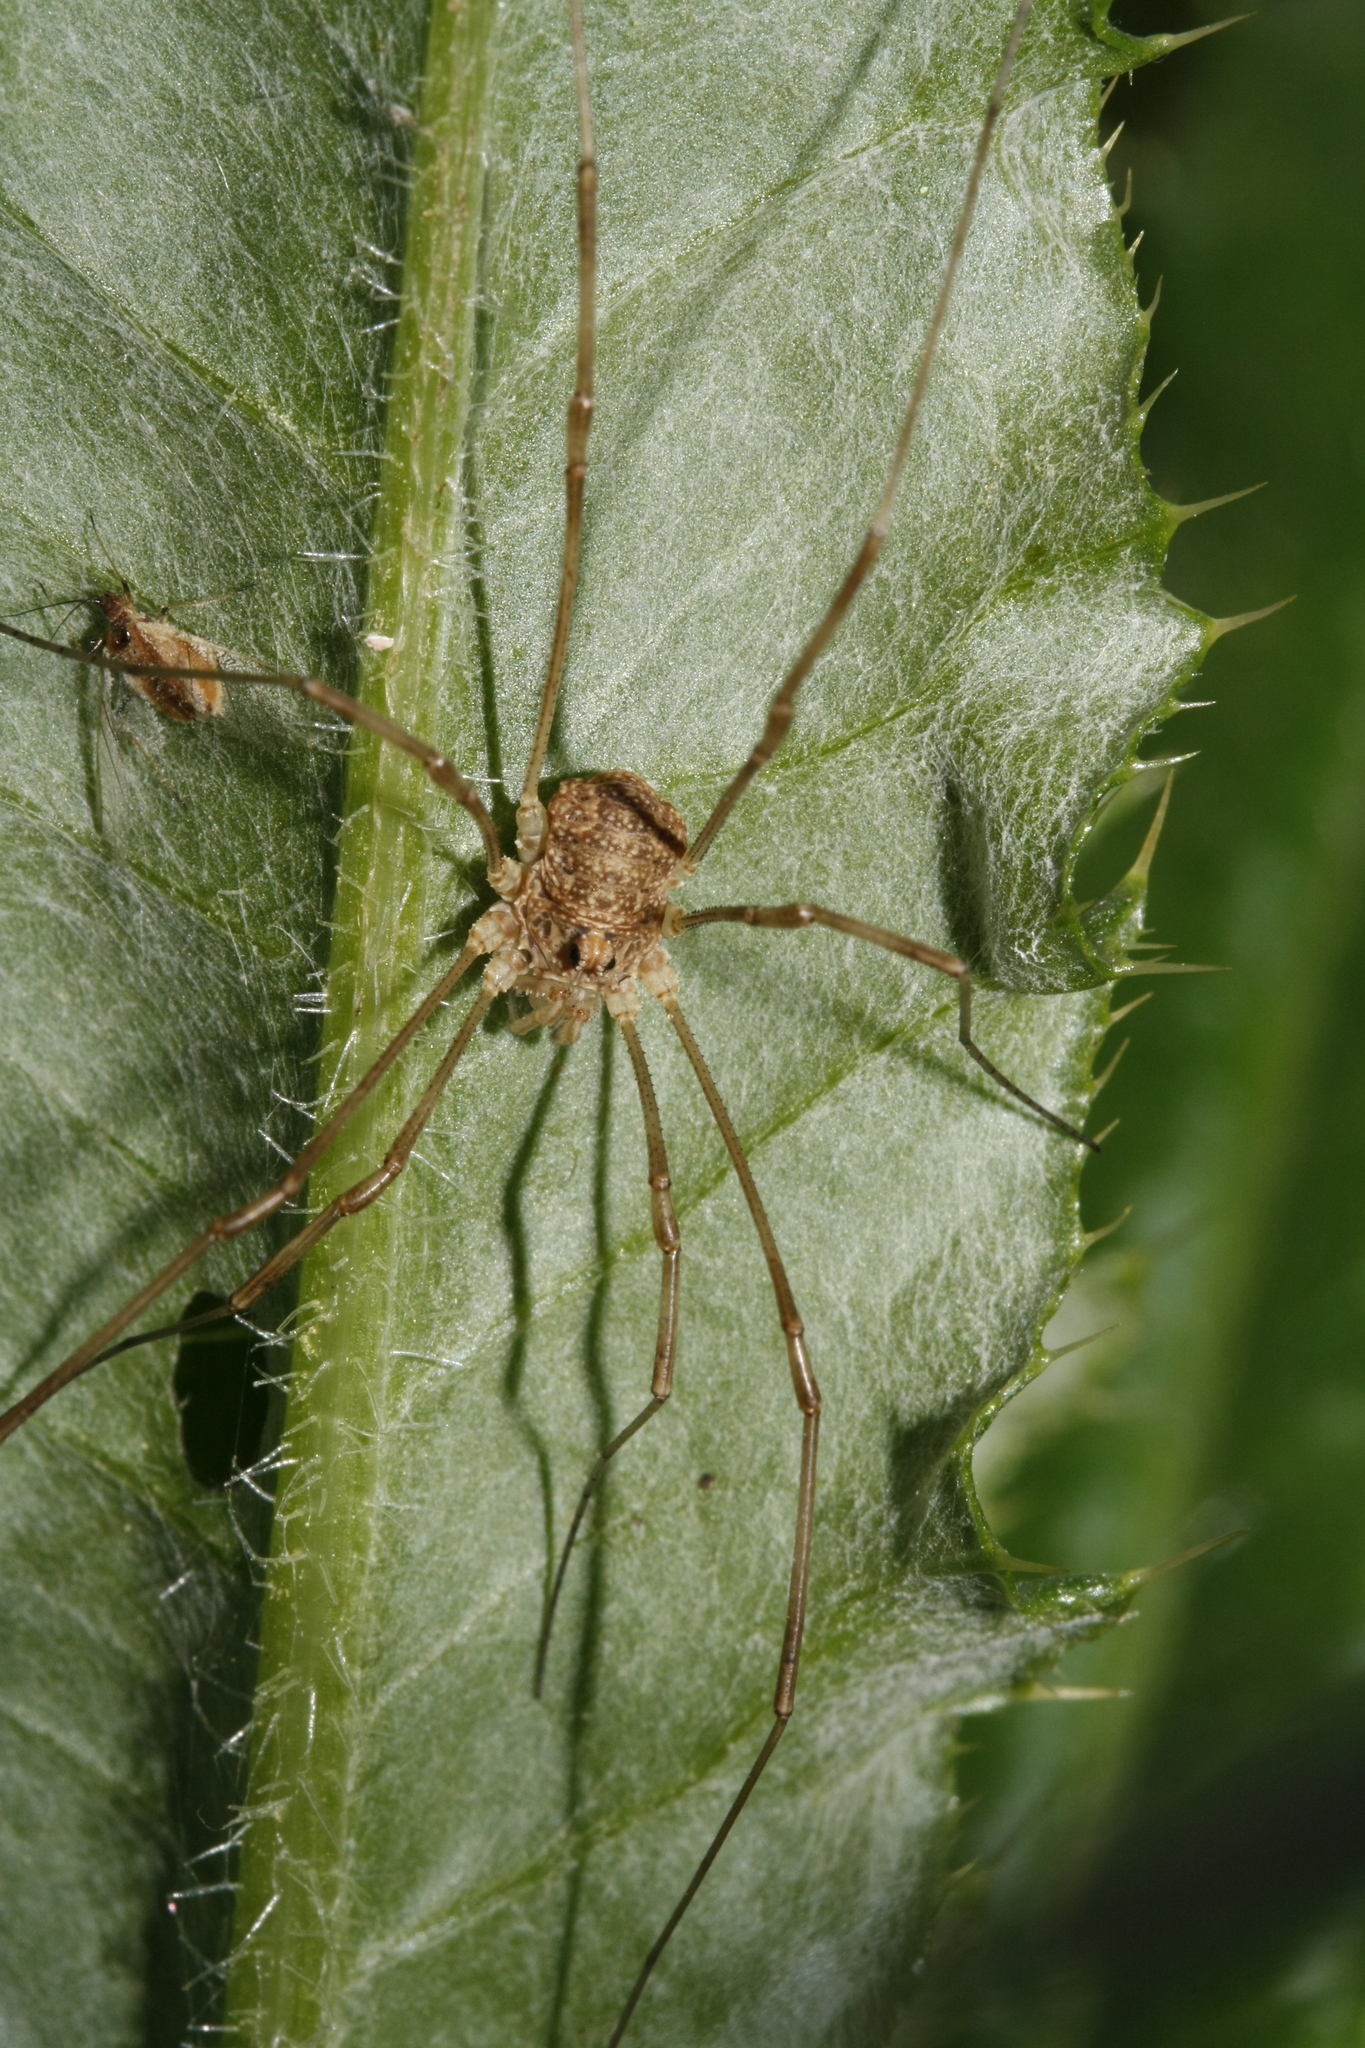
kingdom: Animalia
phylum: Arthropoda
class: Arachnida
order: Opiliones
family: Phalangiidae
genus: Rilaena
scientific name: Rilaena triangularis
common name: Spring harvestman
